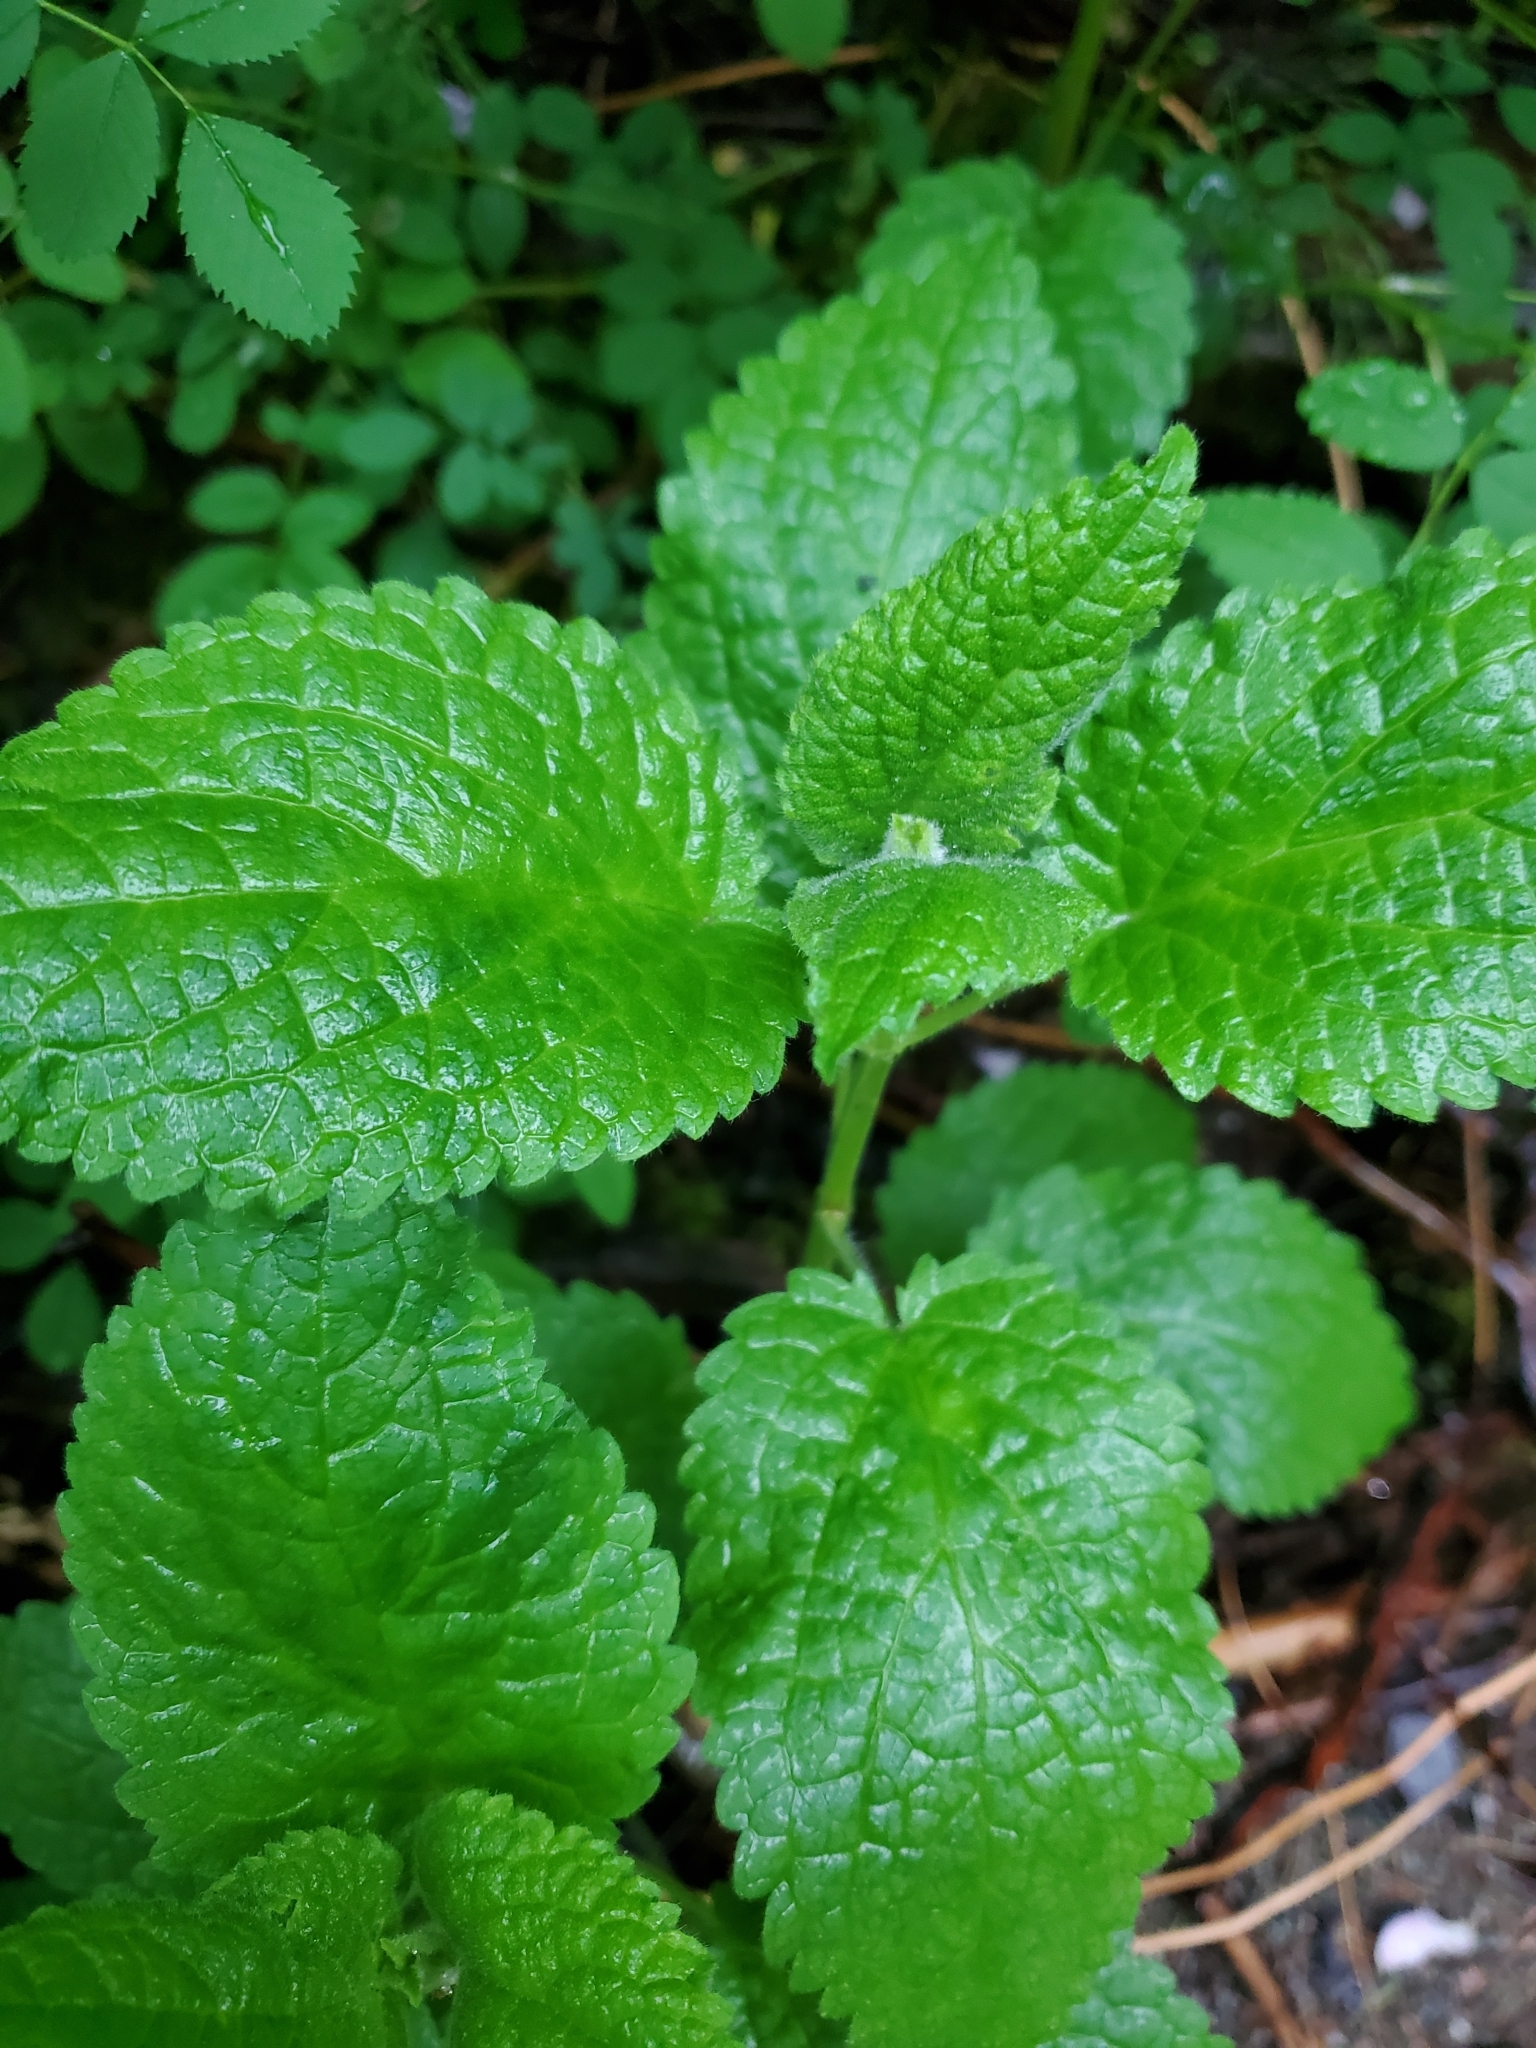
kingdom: Plantae
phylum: Tracheophyta
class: Magnoliopsida
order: Lamiales
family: Lamiaceae
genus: Stachys
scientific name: Stachys chamissonis
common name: Coastal hedge-nettle
